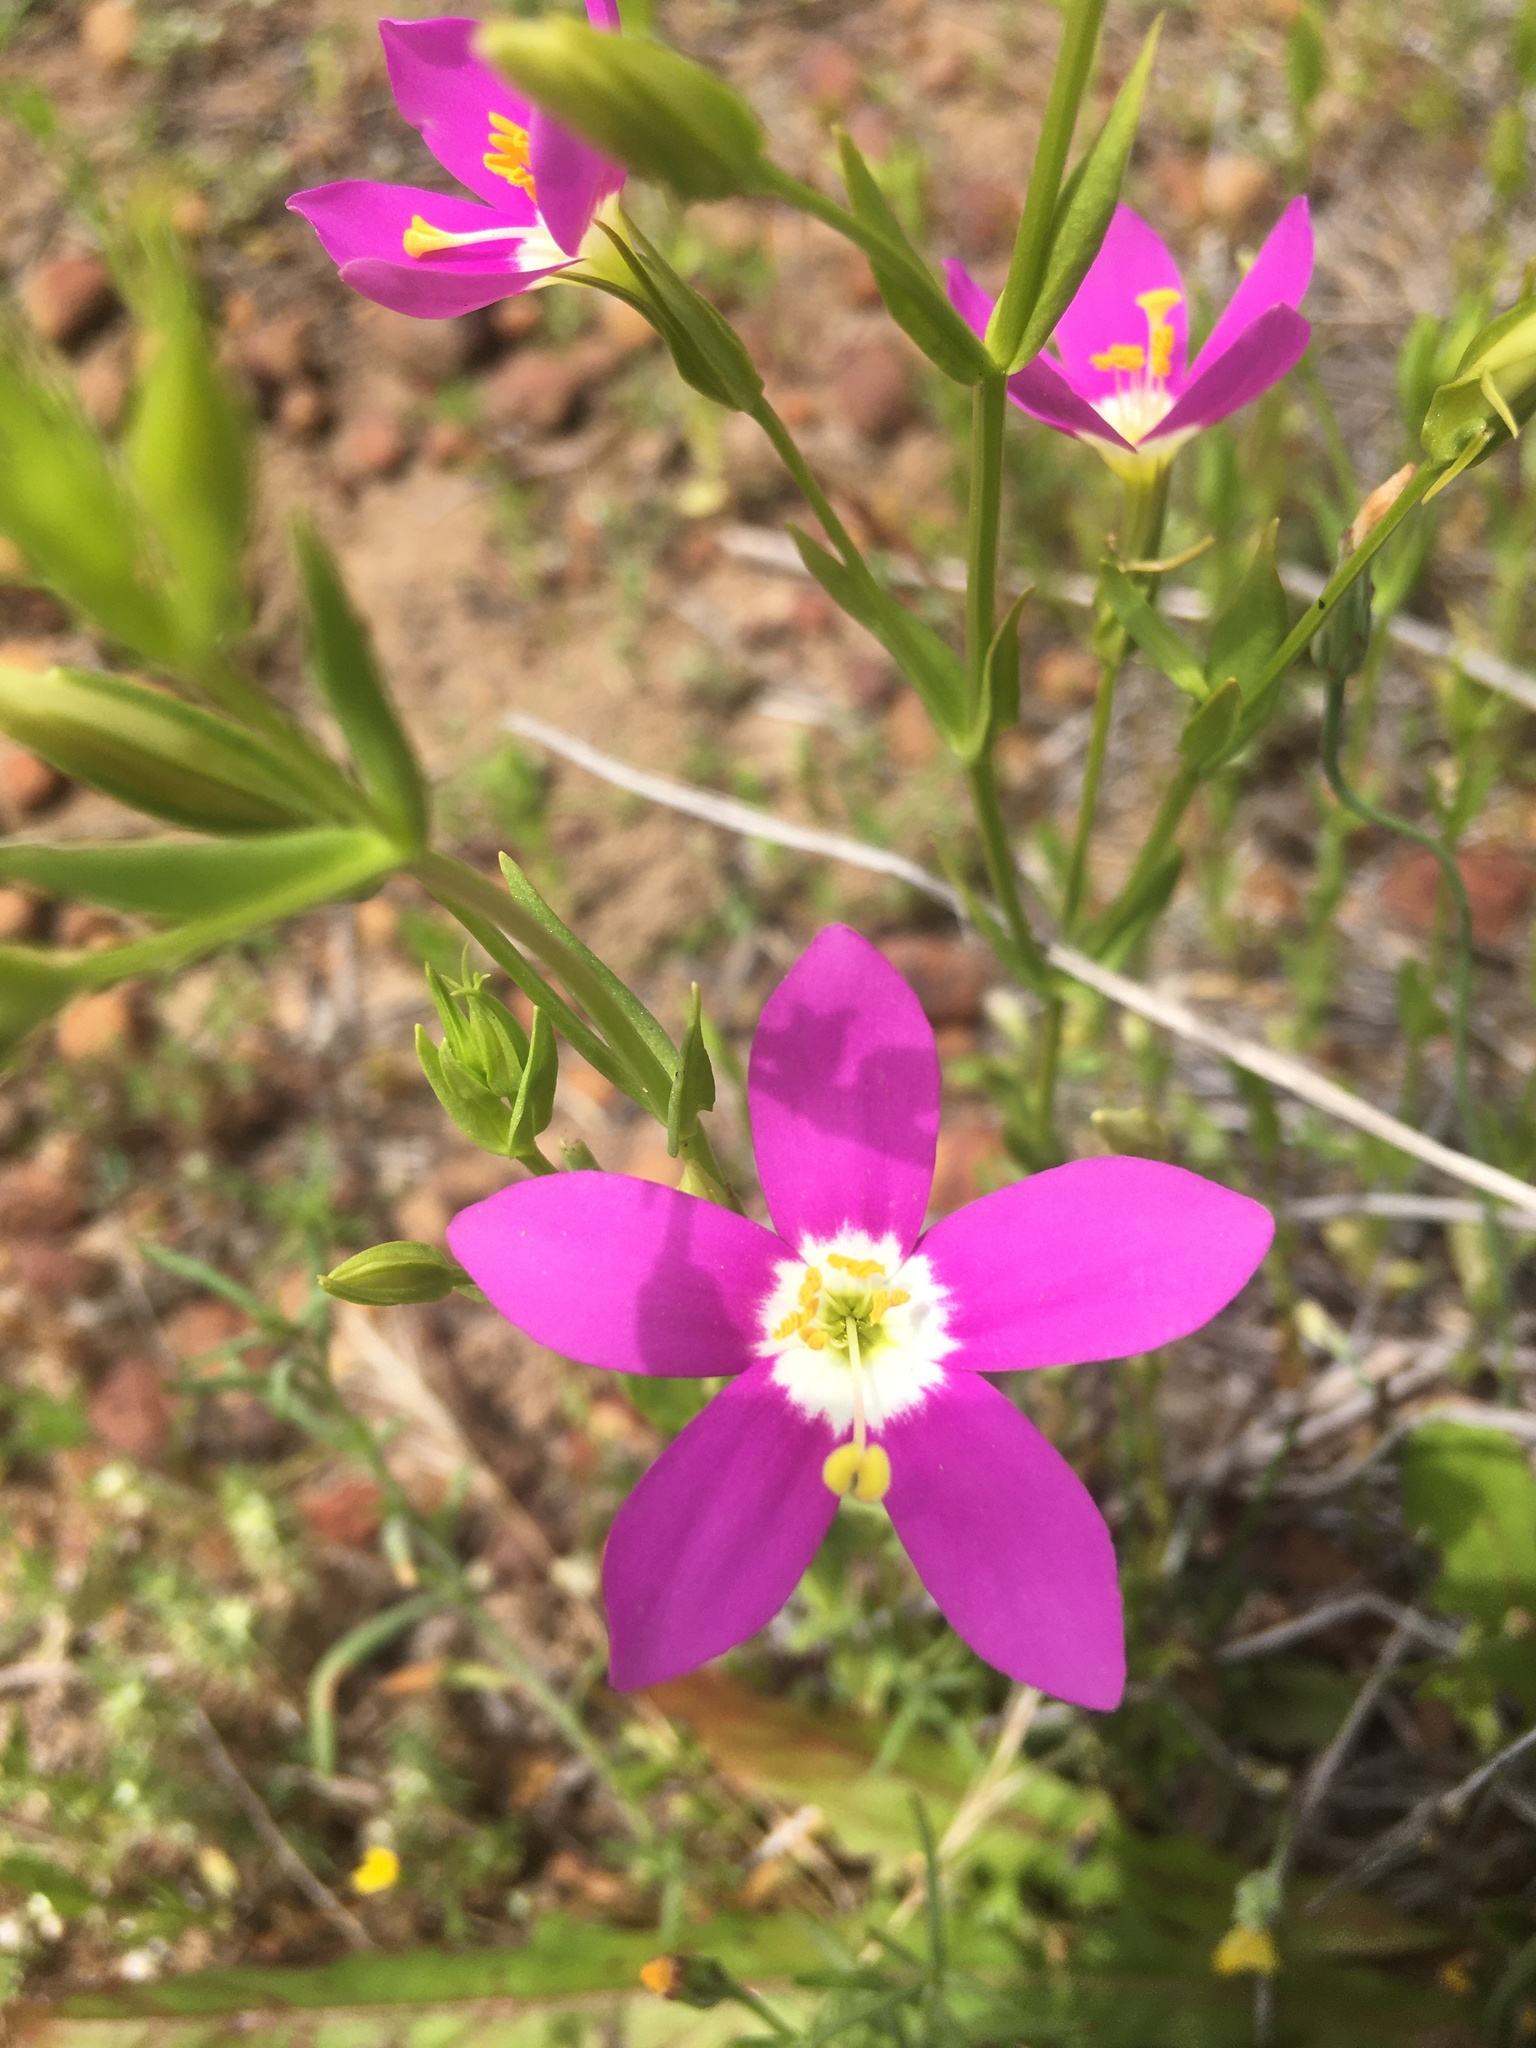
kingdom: Plantae
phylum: Tracheophyta
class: Magnoliopsida
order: Gentianales
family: Gentianaceae
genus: Zeltnera
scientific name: Zeltnera venusta
